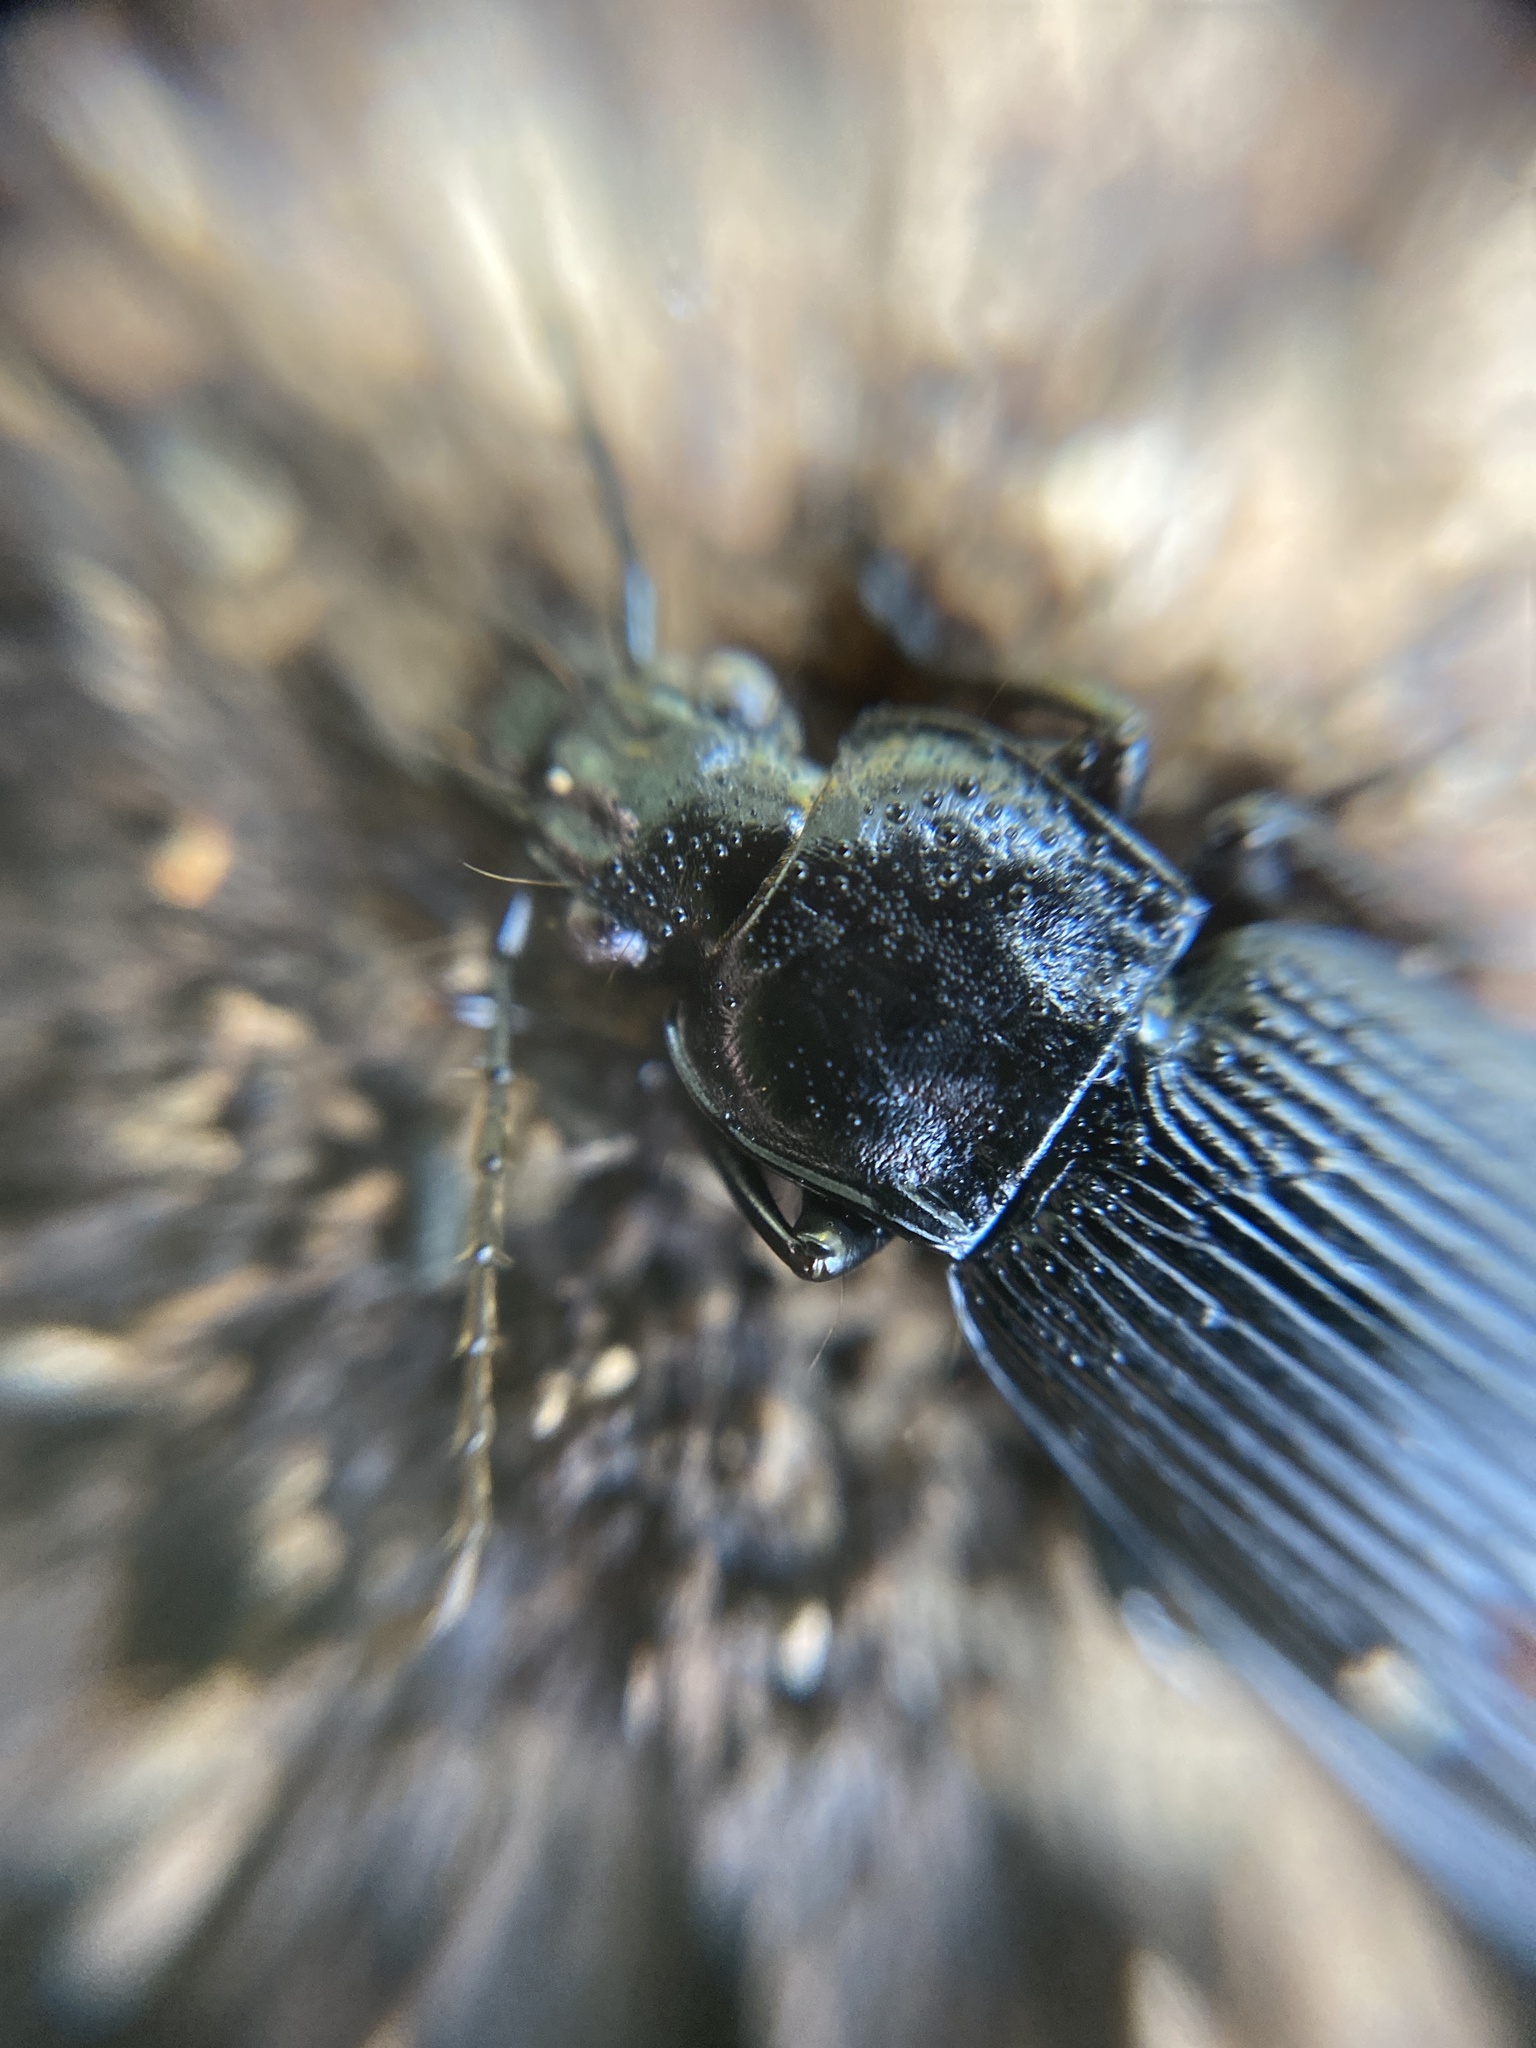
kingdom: Animalia
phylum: Arthropoda
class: Insecta
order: Coleoptera
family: Carabidae
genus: Pterostichus
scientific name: Pterostichus niger
